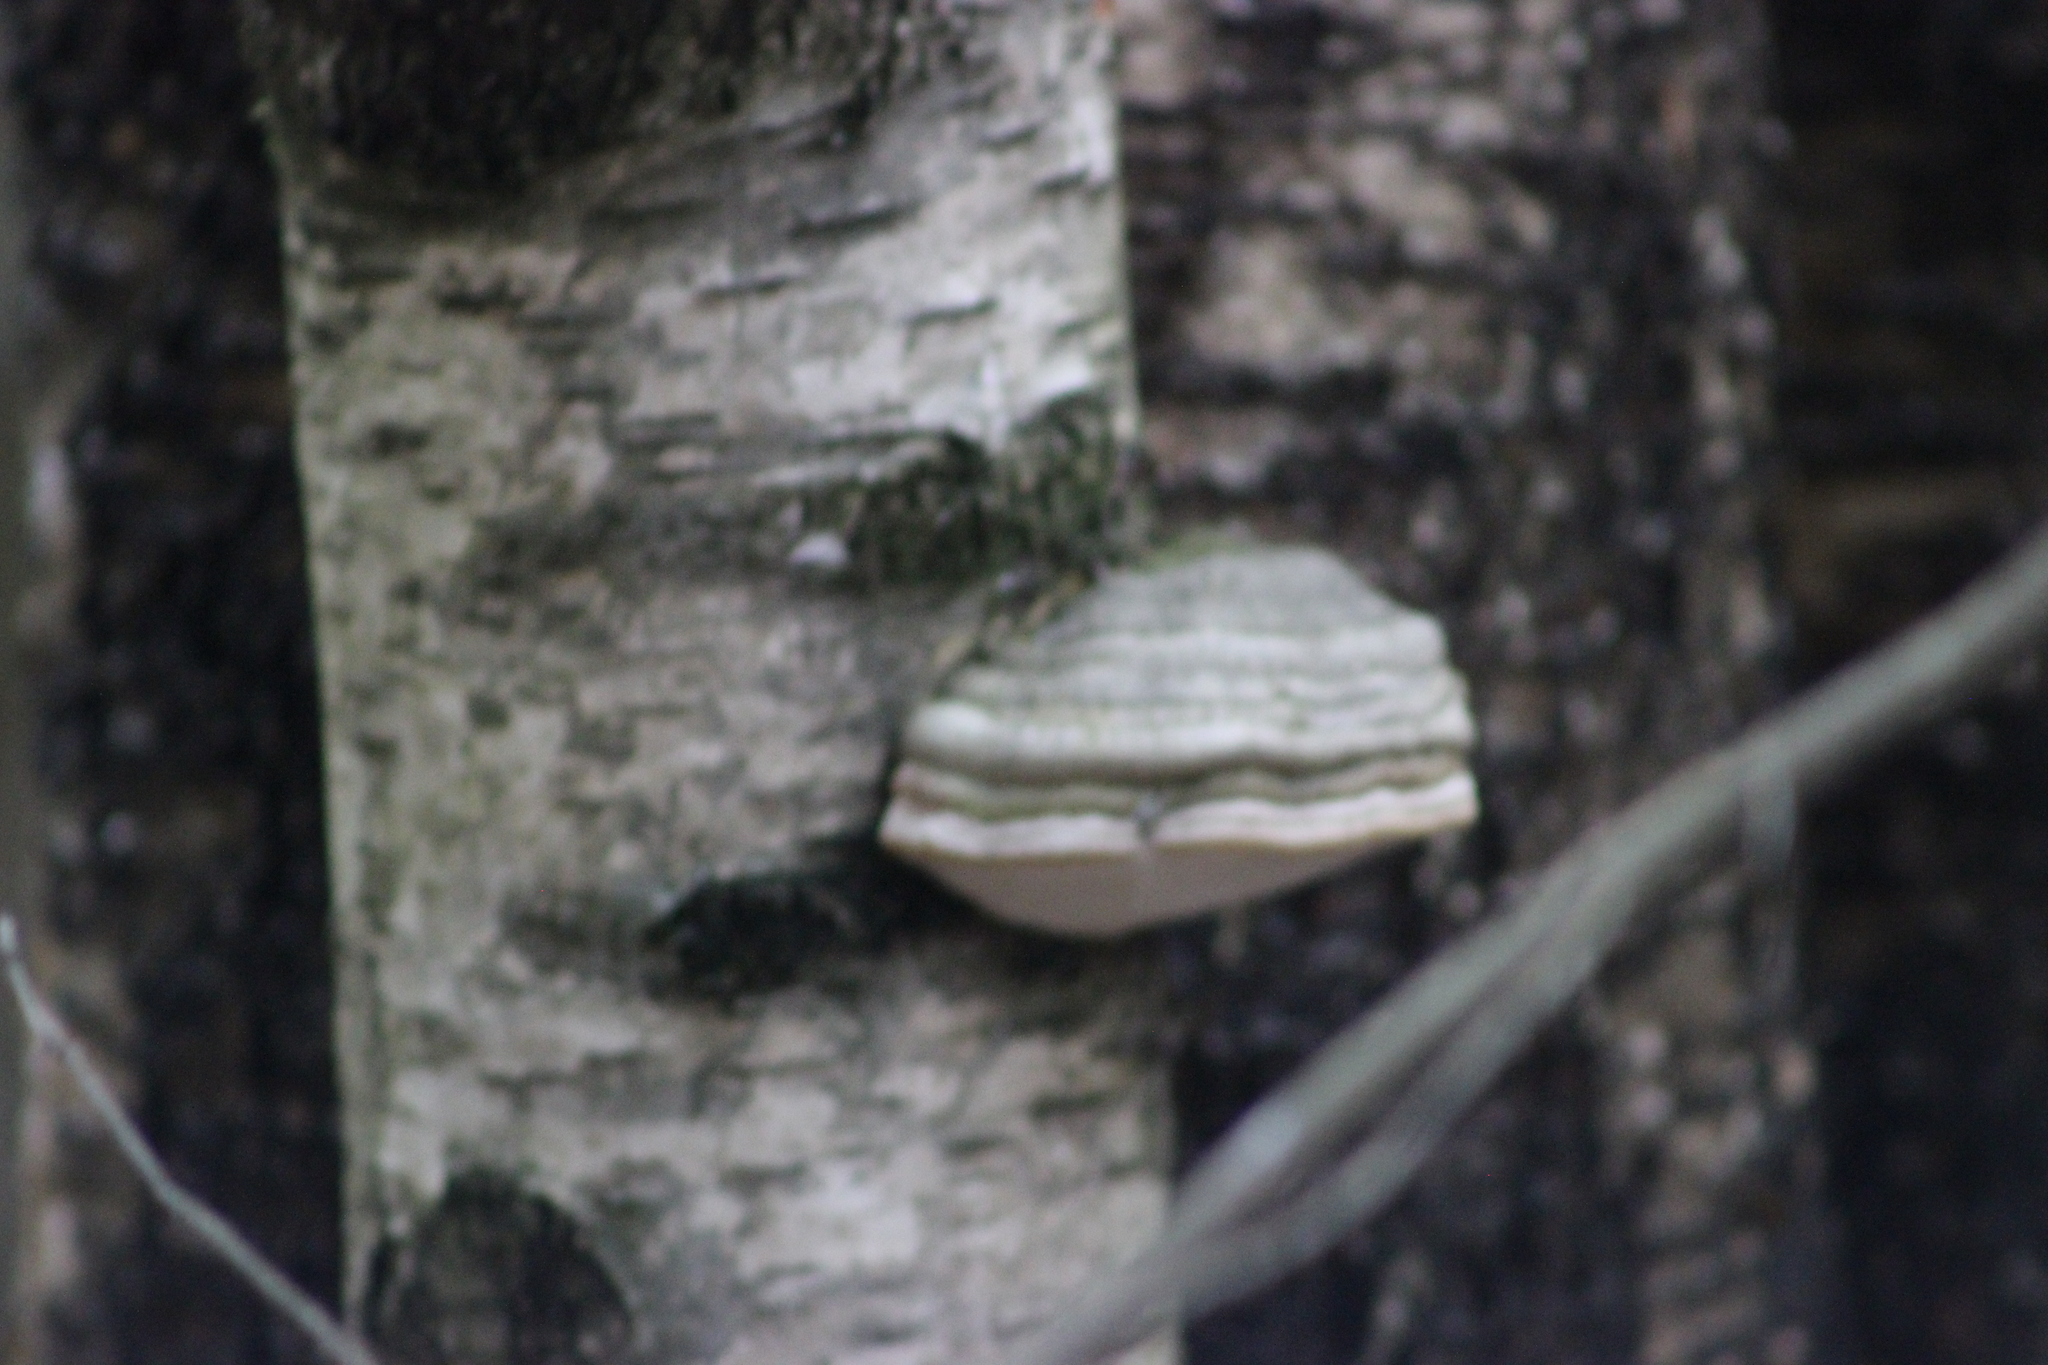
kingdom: Fungi
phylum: Basidiomycota
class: Agaricomycetes
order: Polyporales
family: Polyporaceae
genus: Fomes
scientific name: Fomes fomentarius
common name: Hoof fungus
